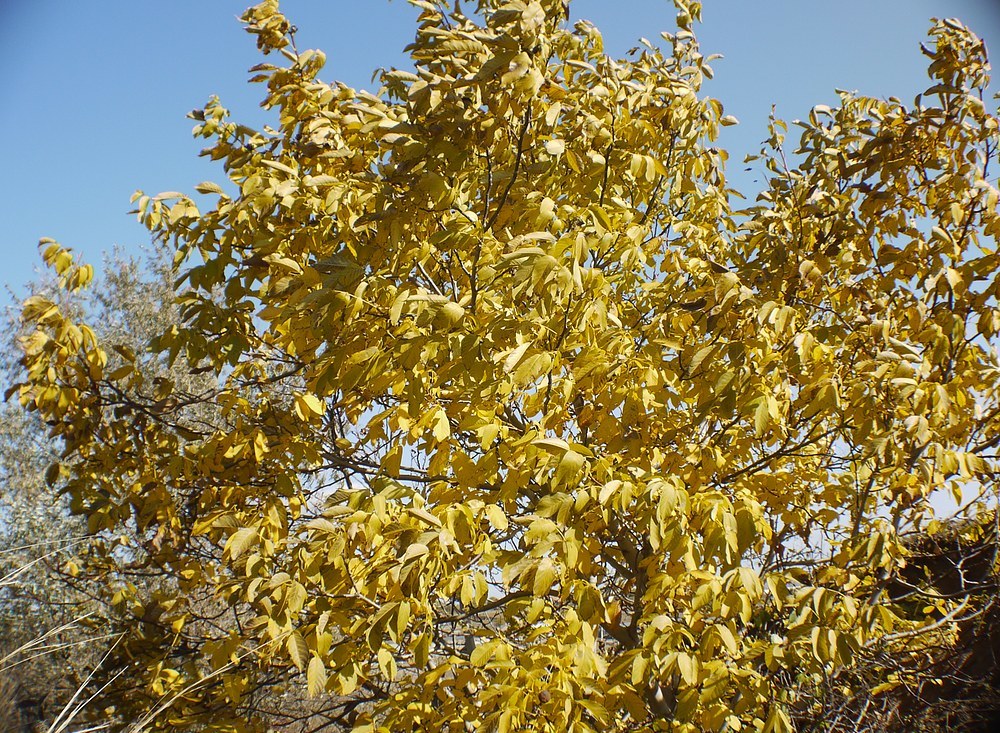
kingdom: Plantae
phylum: Tracheophyta
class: Magnoliopsida
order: Fagales
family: Juglandaceae
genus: Juglans
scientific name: Juglans regia
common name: Walnut
